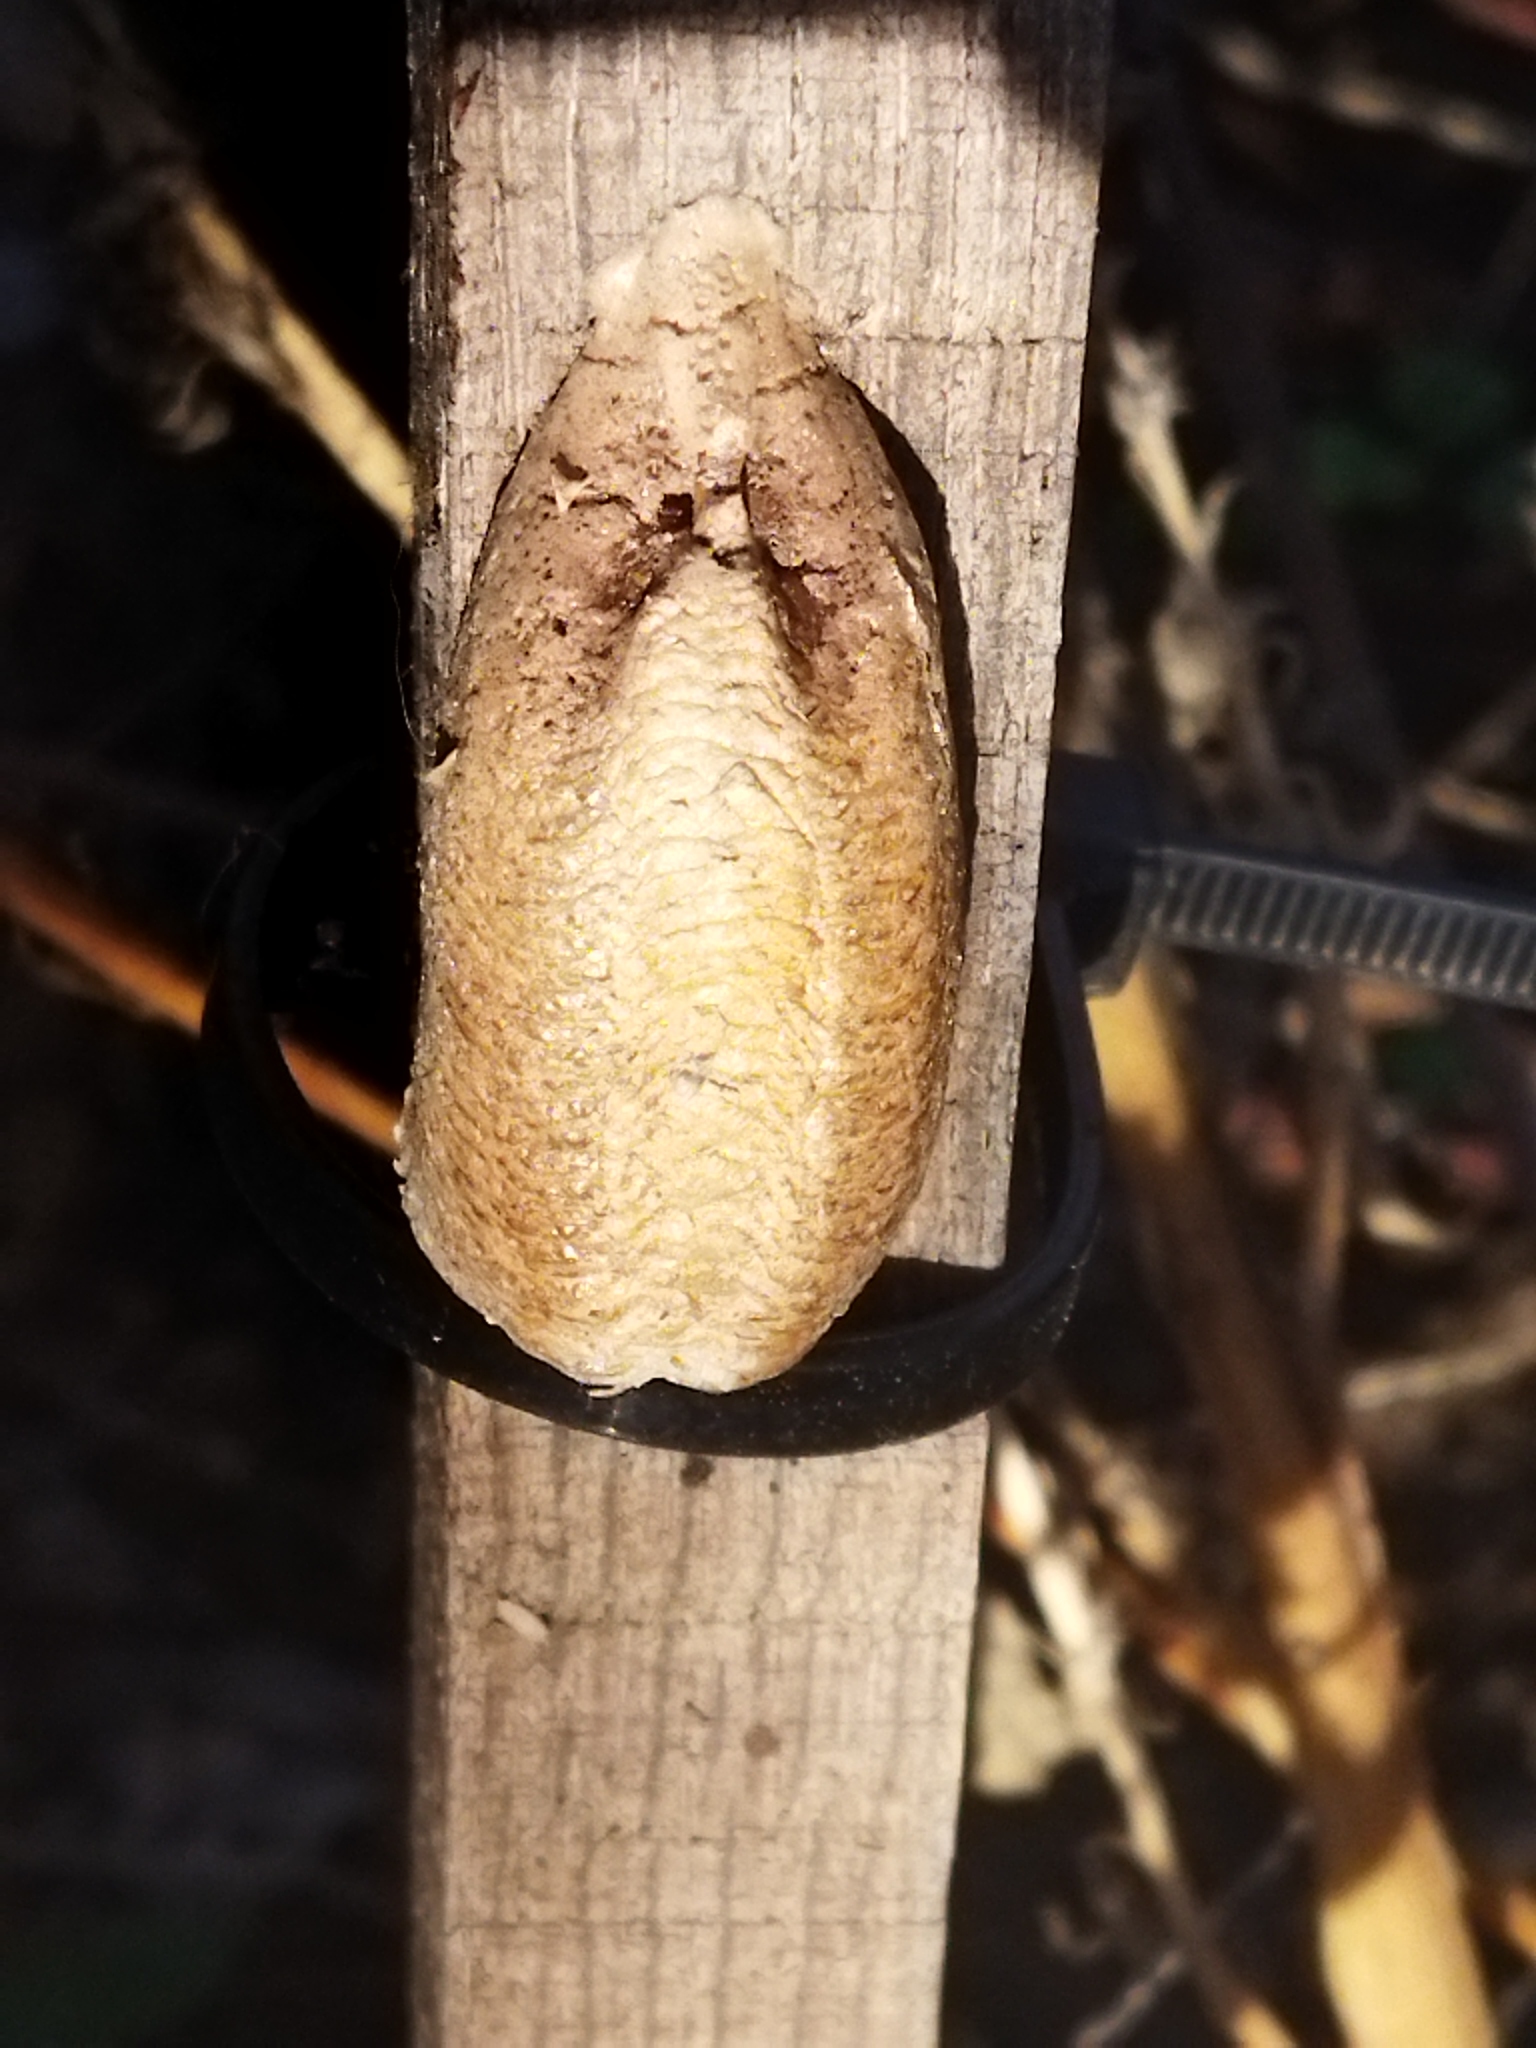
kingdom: Animalia
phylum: Arthropoda
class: Insecta
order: Mantodea
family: Mantidae
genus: Mantis
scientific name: Mantis religiosa
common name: Praying mantis
